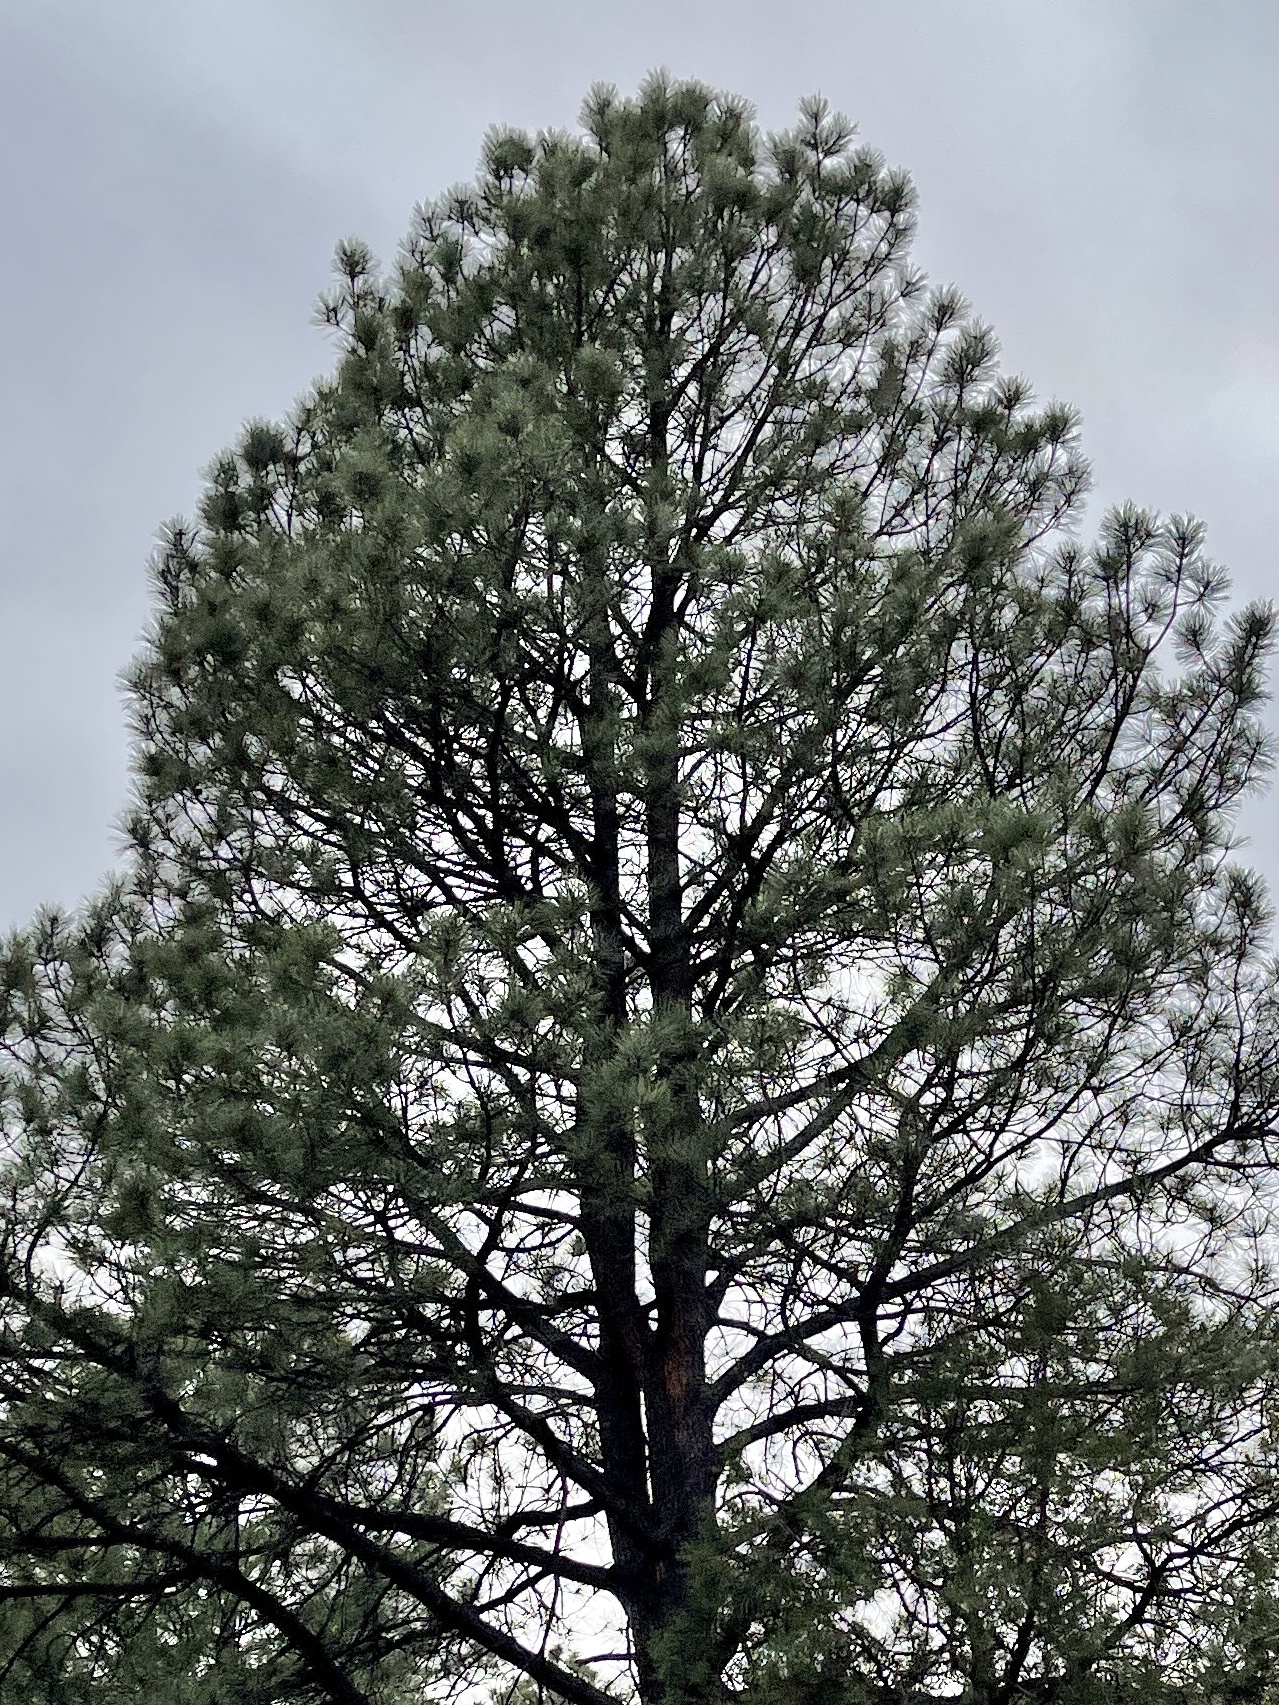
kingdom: Plantae
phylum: Tracheophyta
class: Pinopsida
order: Pinales
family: Pinaceae
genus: Pinus
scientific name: Pinus ponderosa
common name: Western yellow-pine
